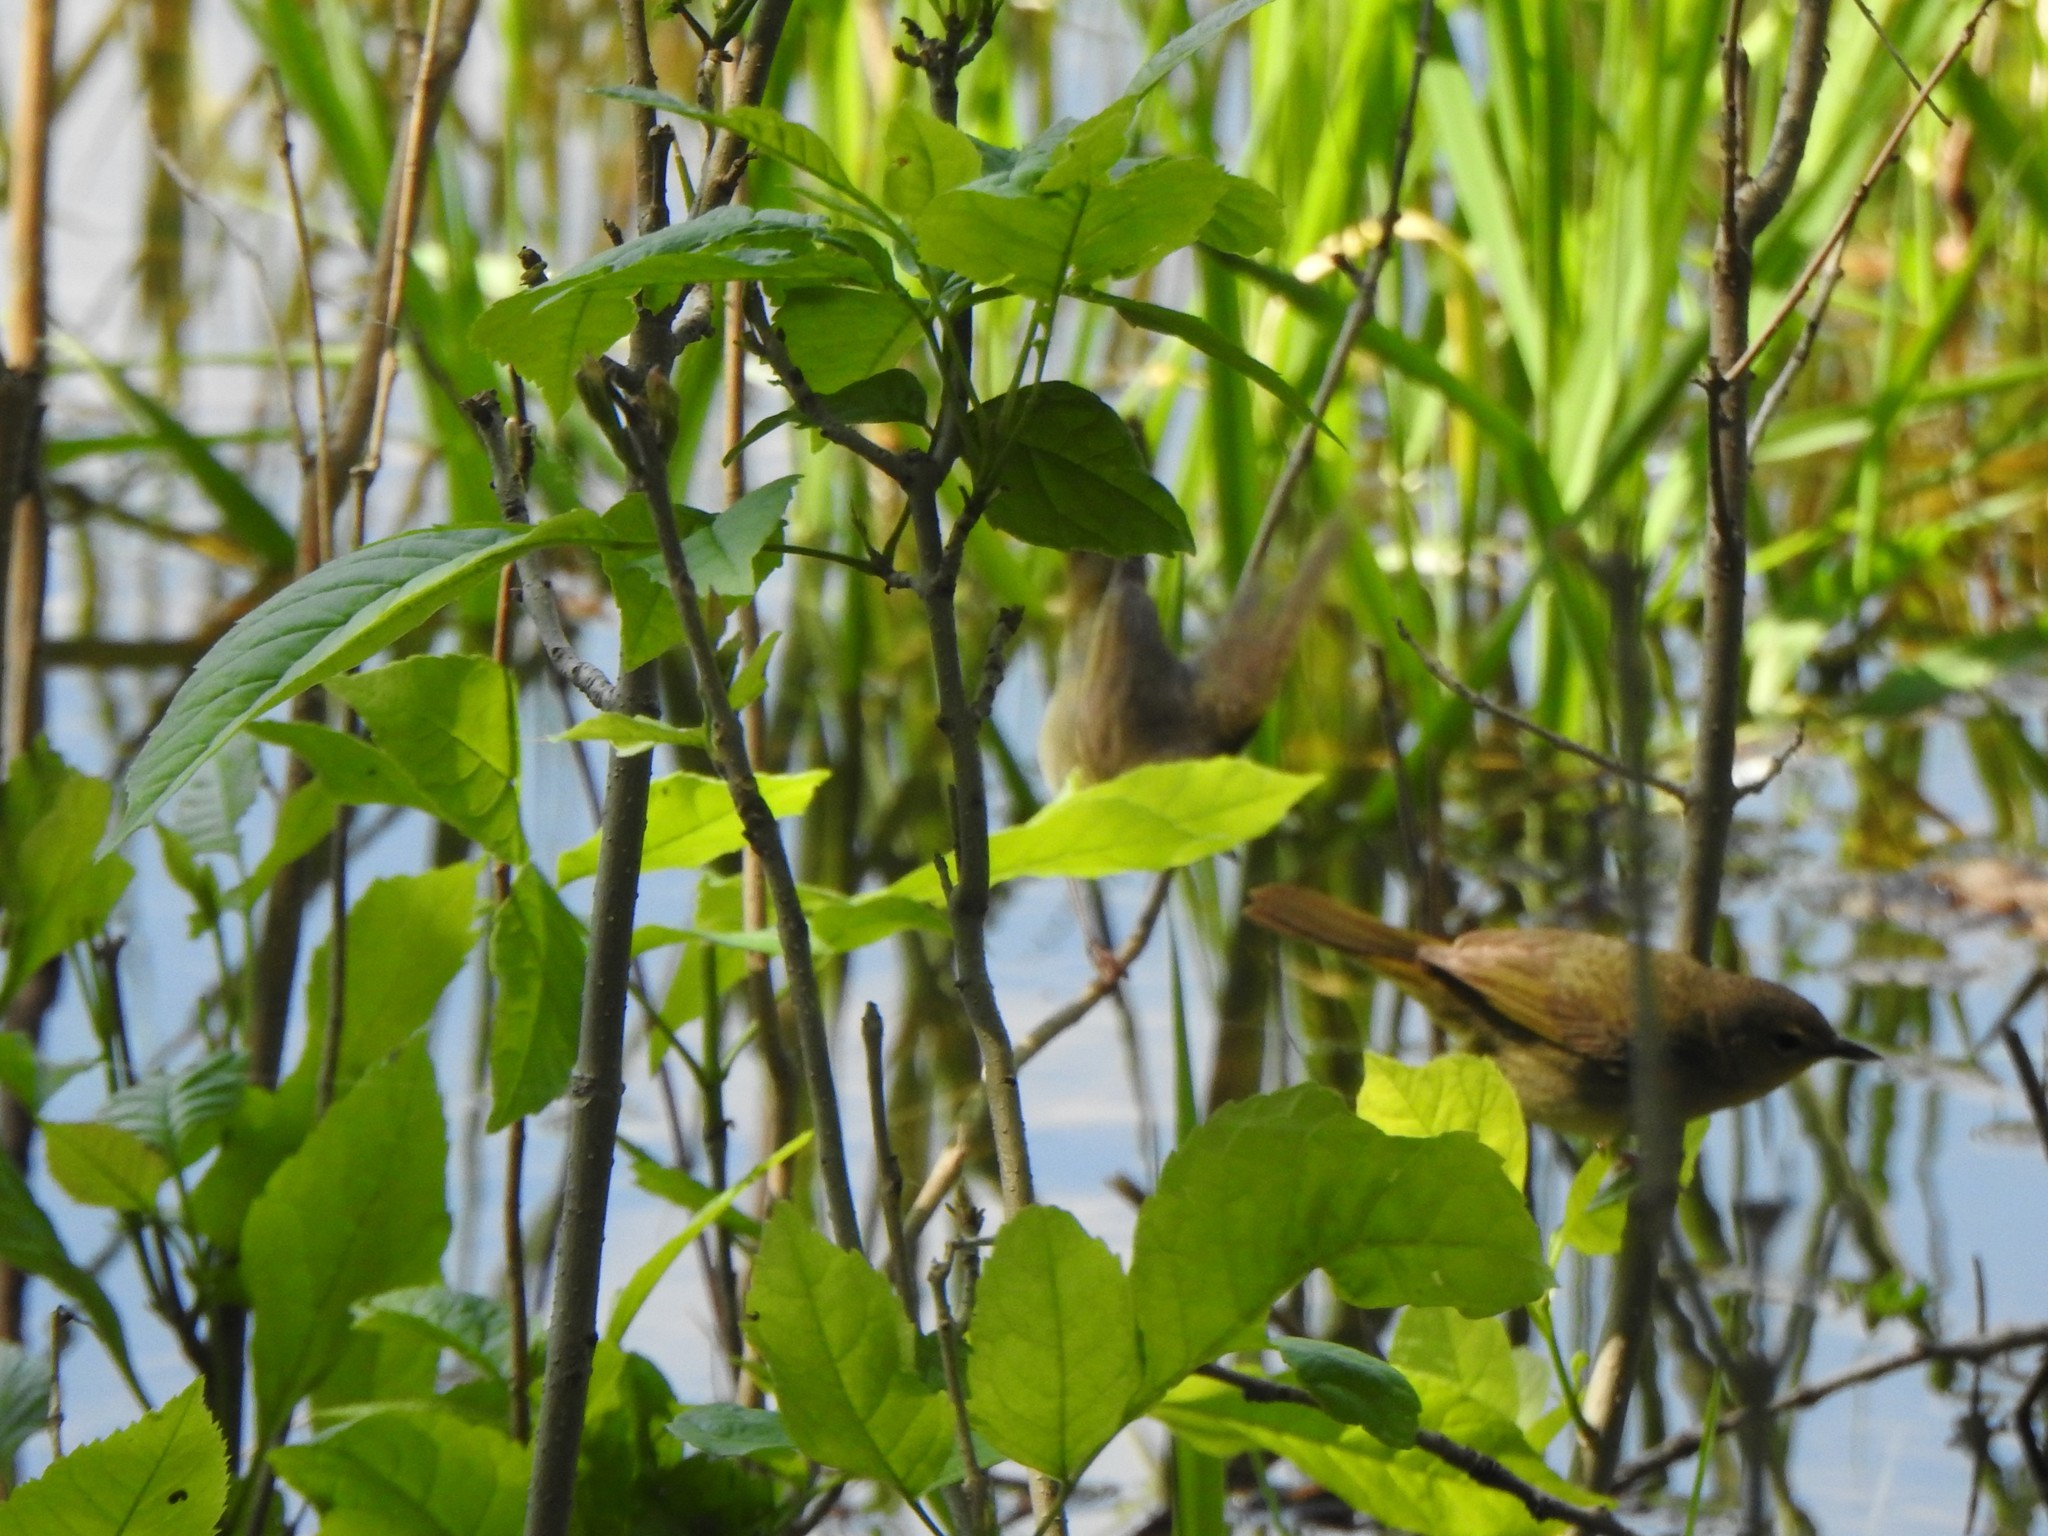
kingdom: Animalia
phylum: Chordata
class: Aves
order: Passeriformes
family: Parulidae
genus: Geothlypis
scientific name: Geothlypis trichas
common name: Common yellowthroat
